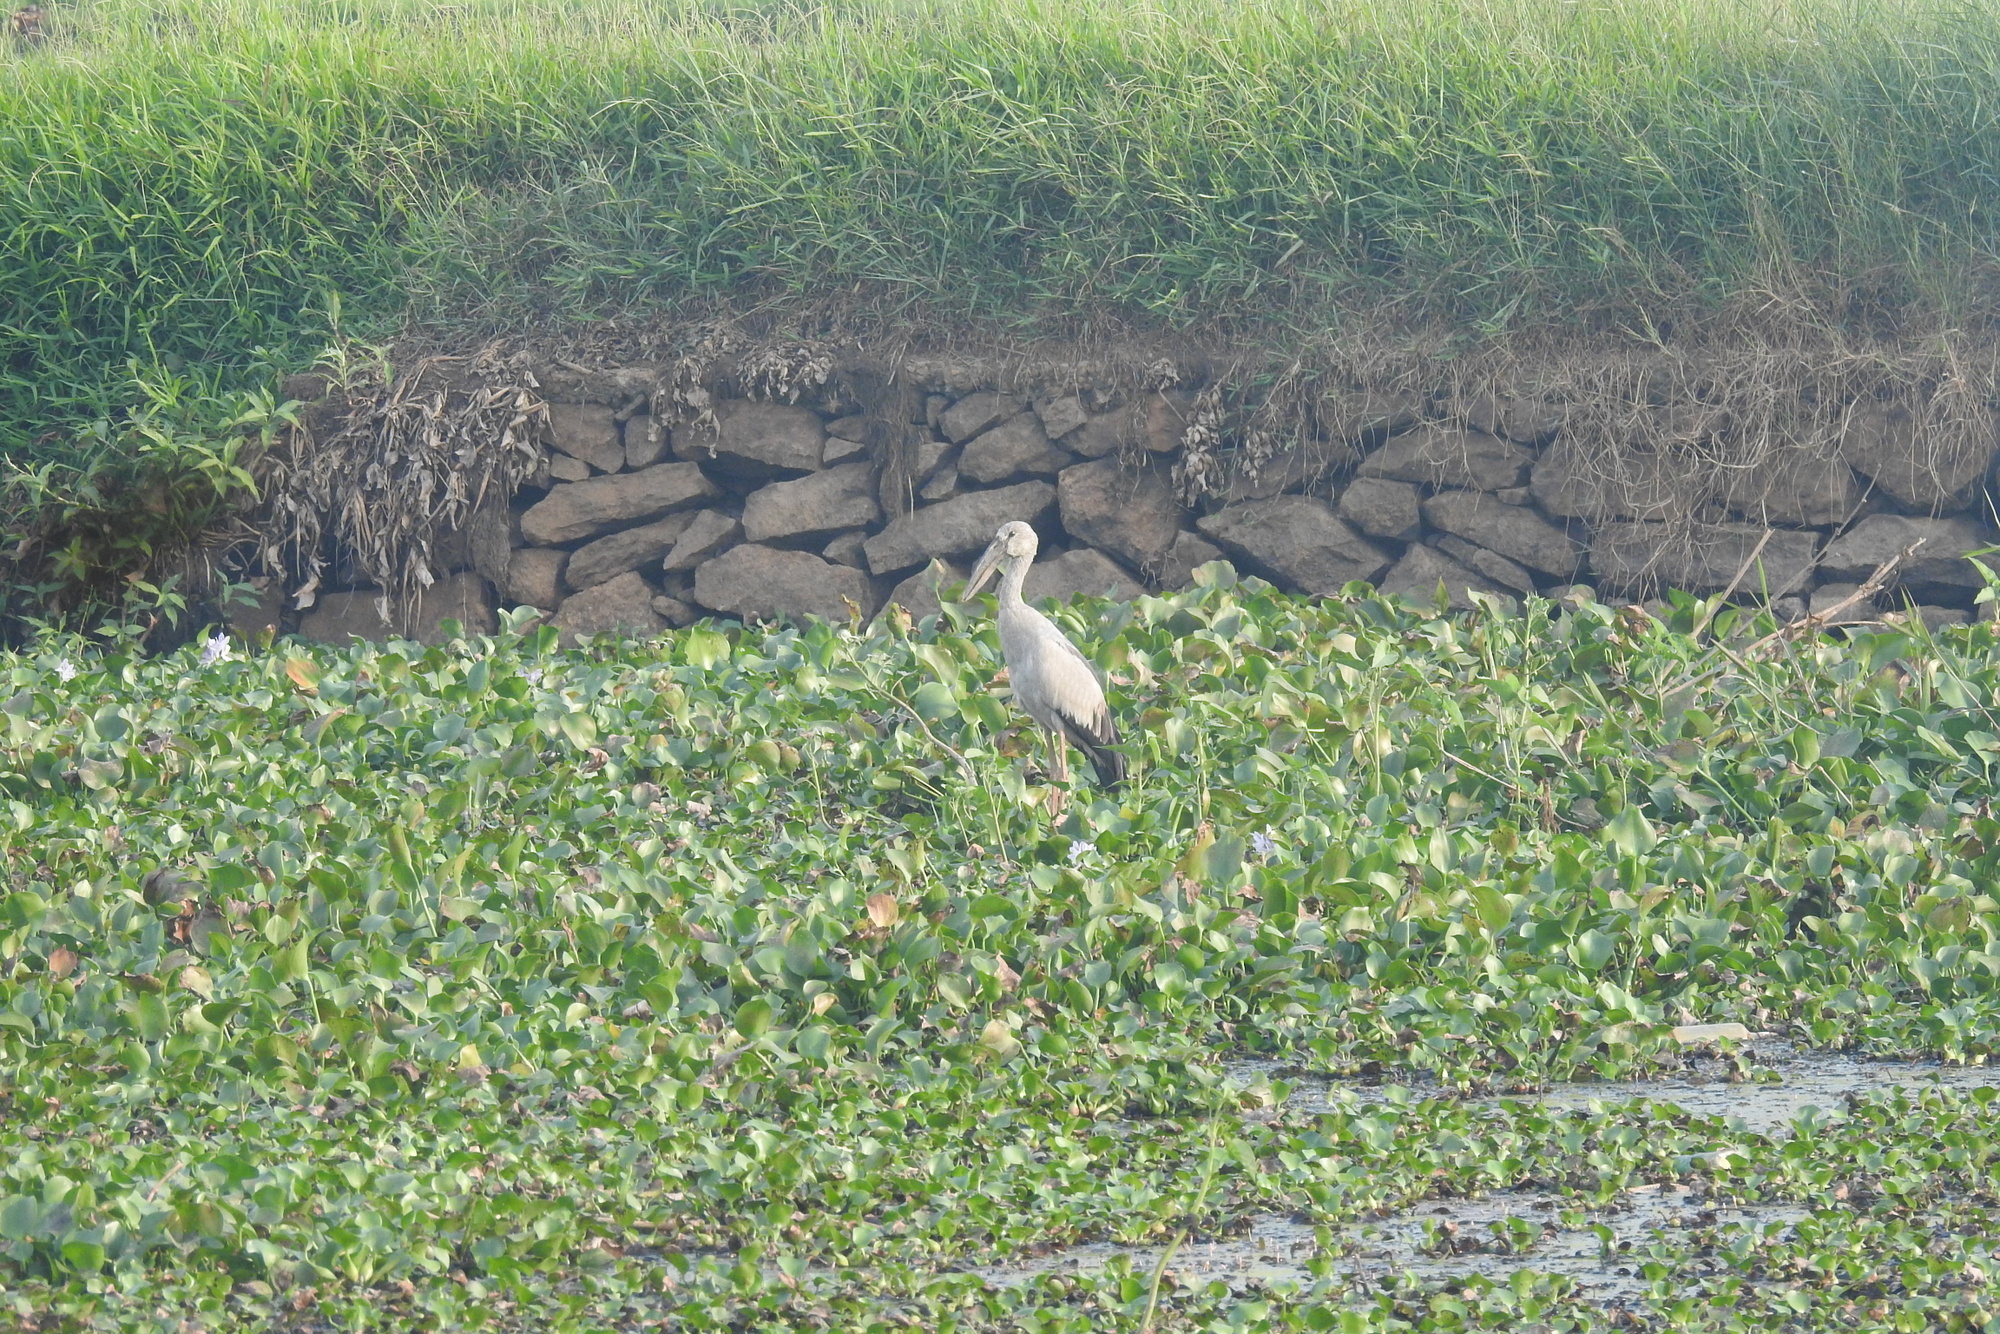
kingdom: Animalia
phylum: Chordata
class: Aves
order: Ciconiiformes
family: Ciconiidae
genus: Anastomus
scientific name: Anastomus oscitans
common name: Asian openbill
